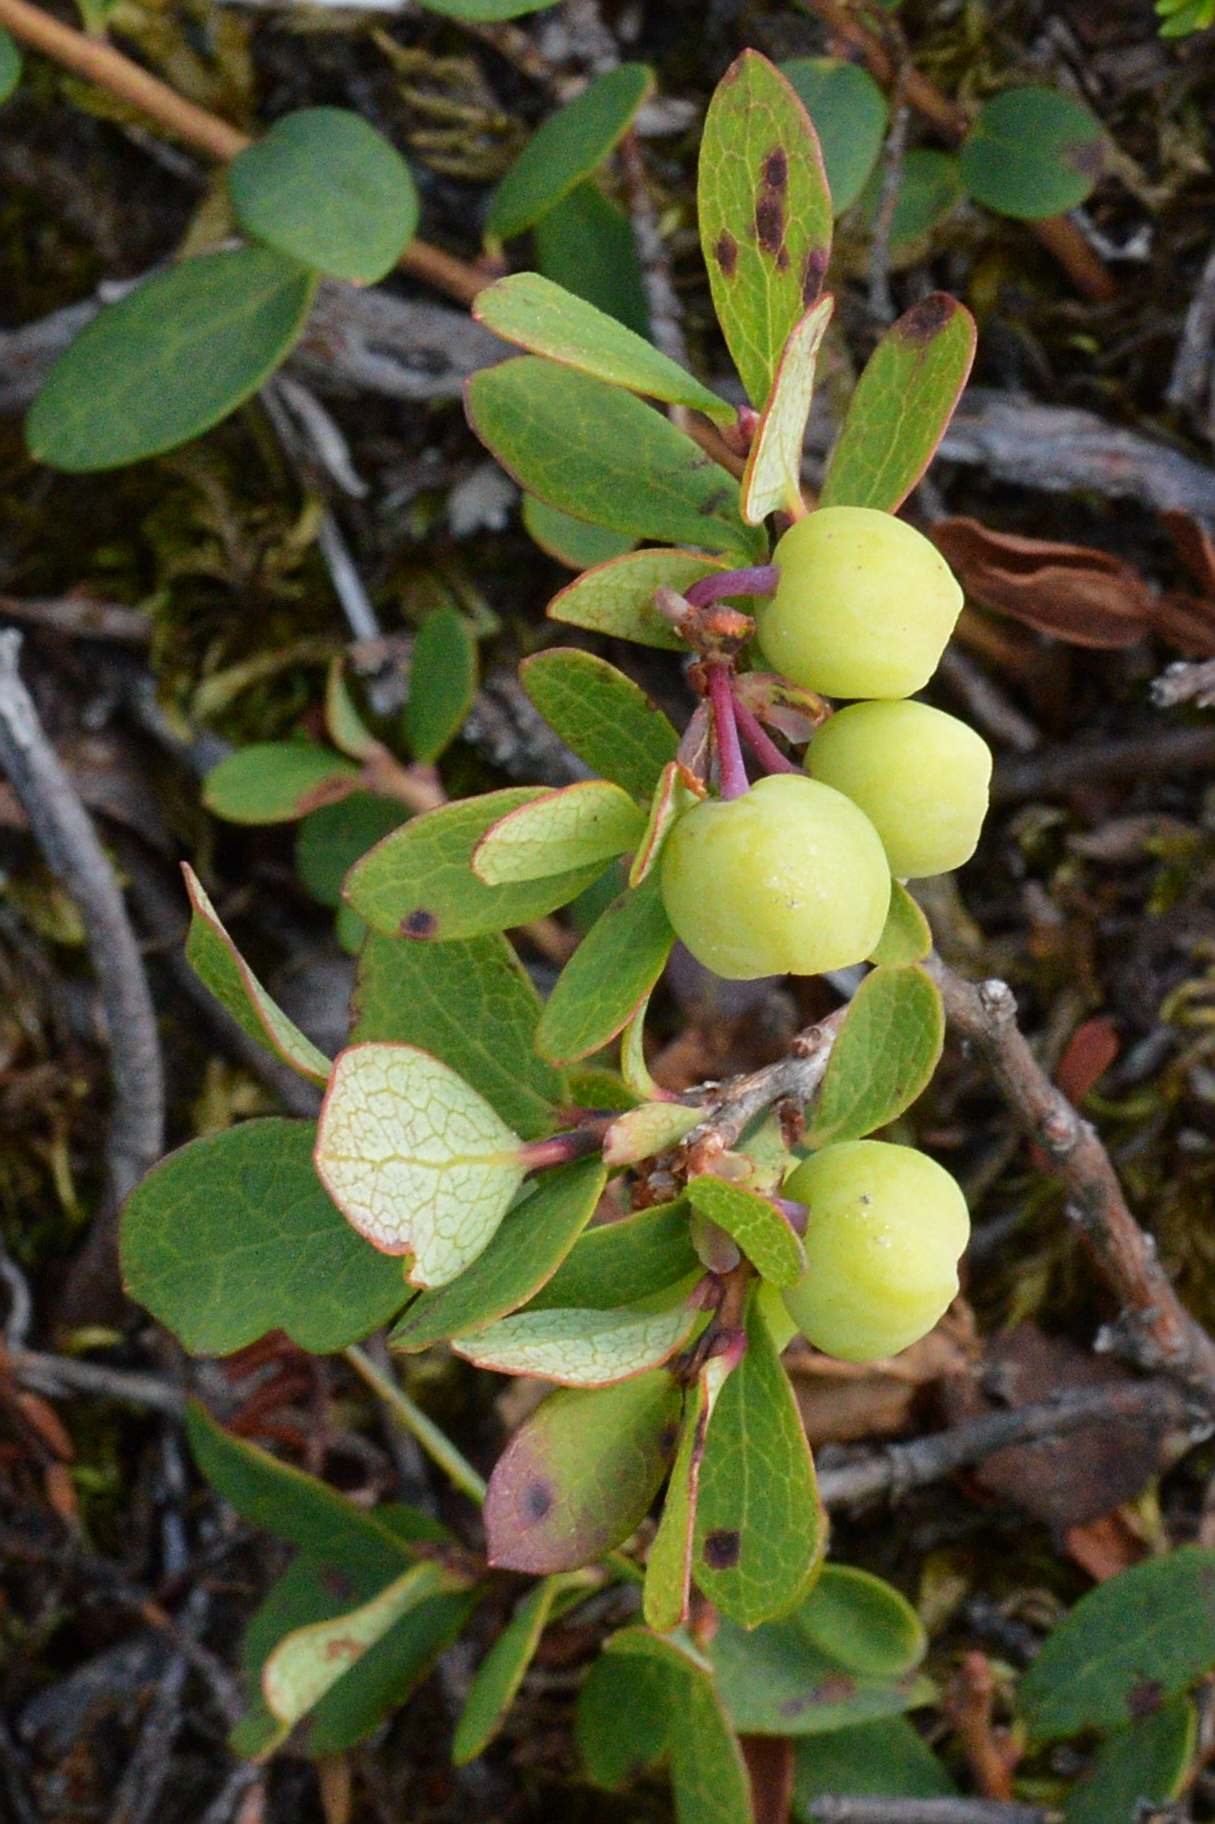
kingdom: Plantae
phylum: Tracheophyta
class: Magnoliopsida
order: Ericales
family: Ericaceae
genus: Vaccinium
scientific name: Vaccinium uliginosum
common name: Bog bilberry
